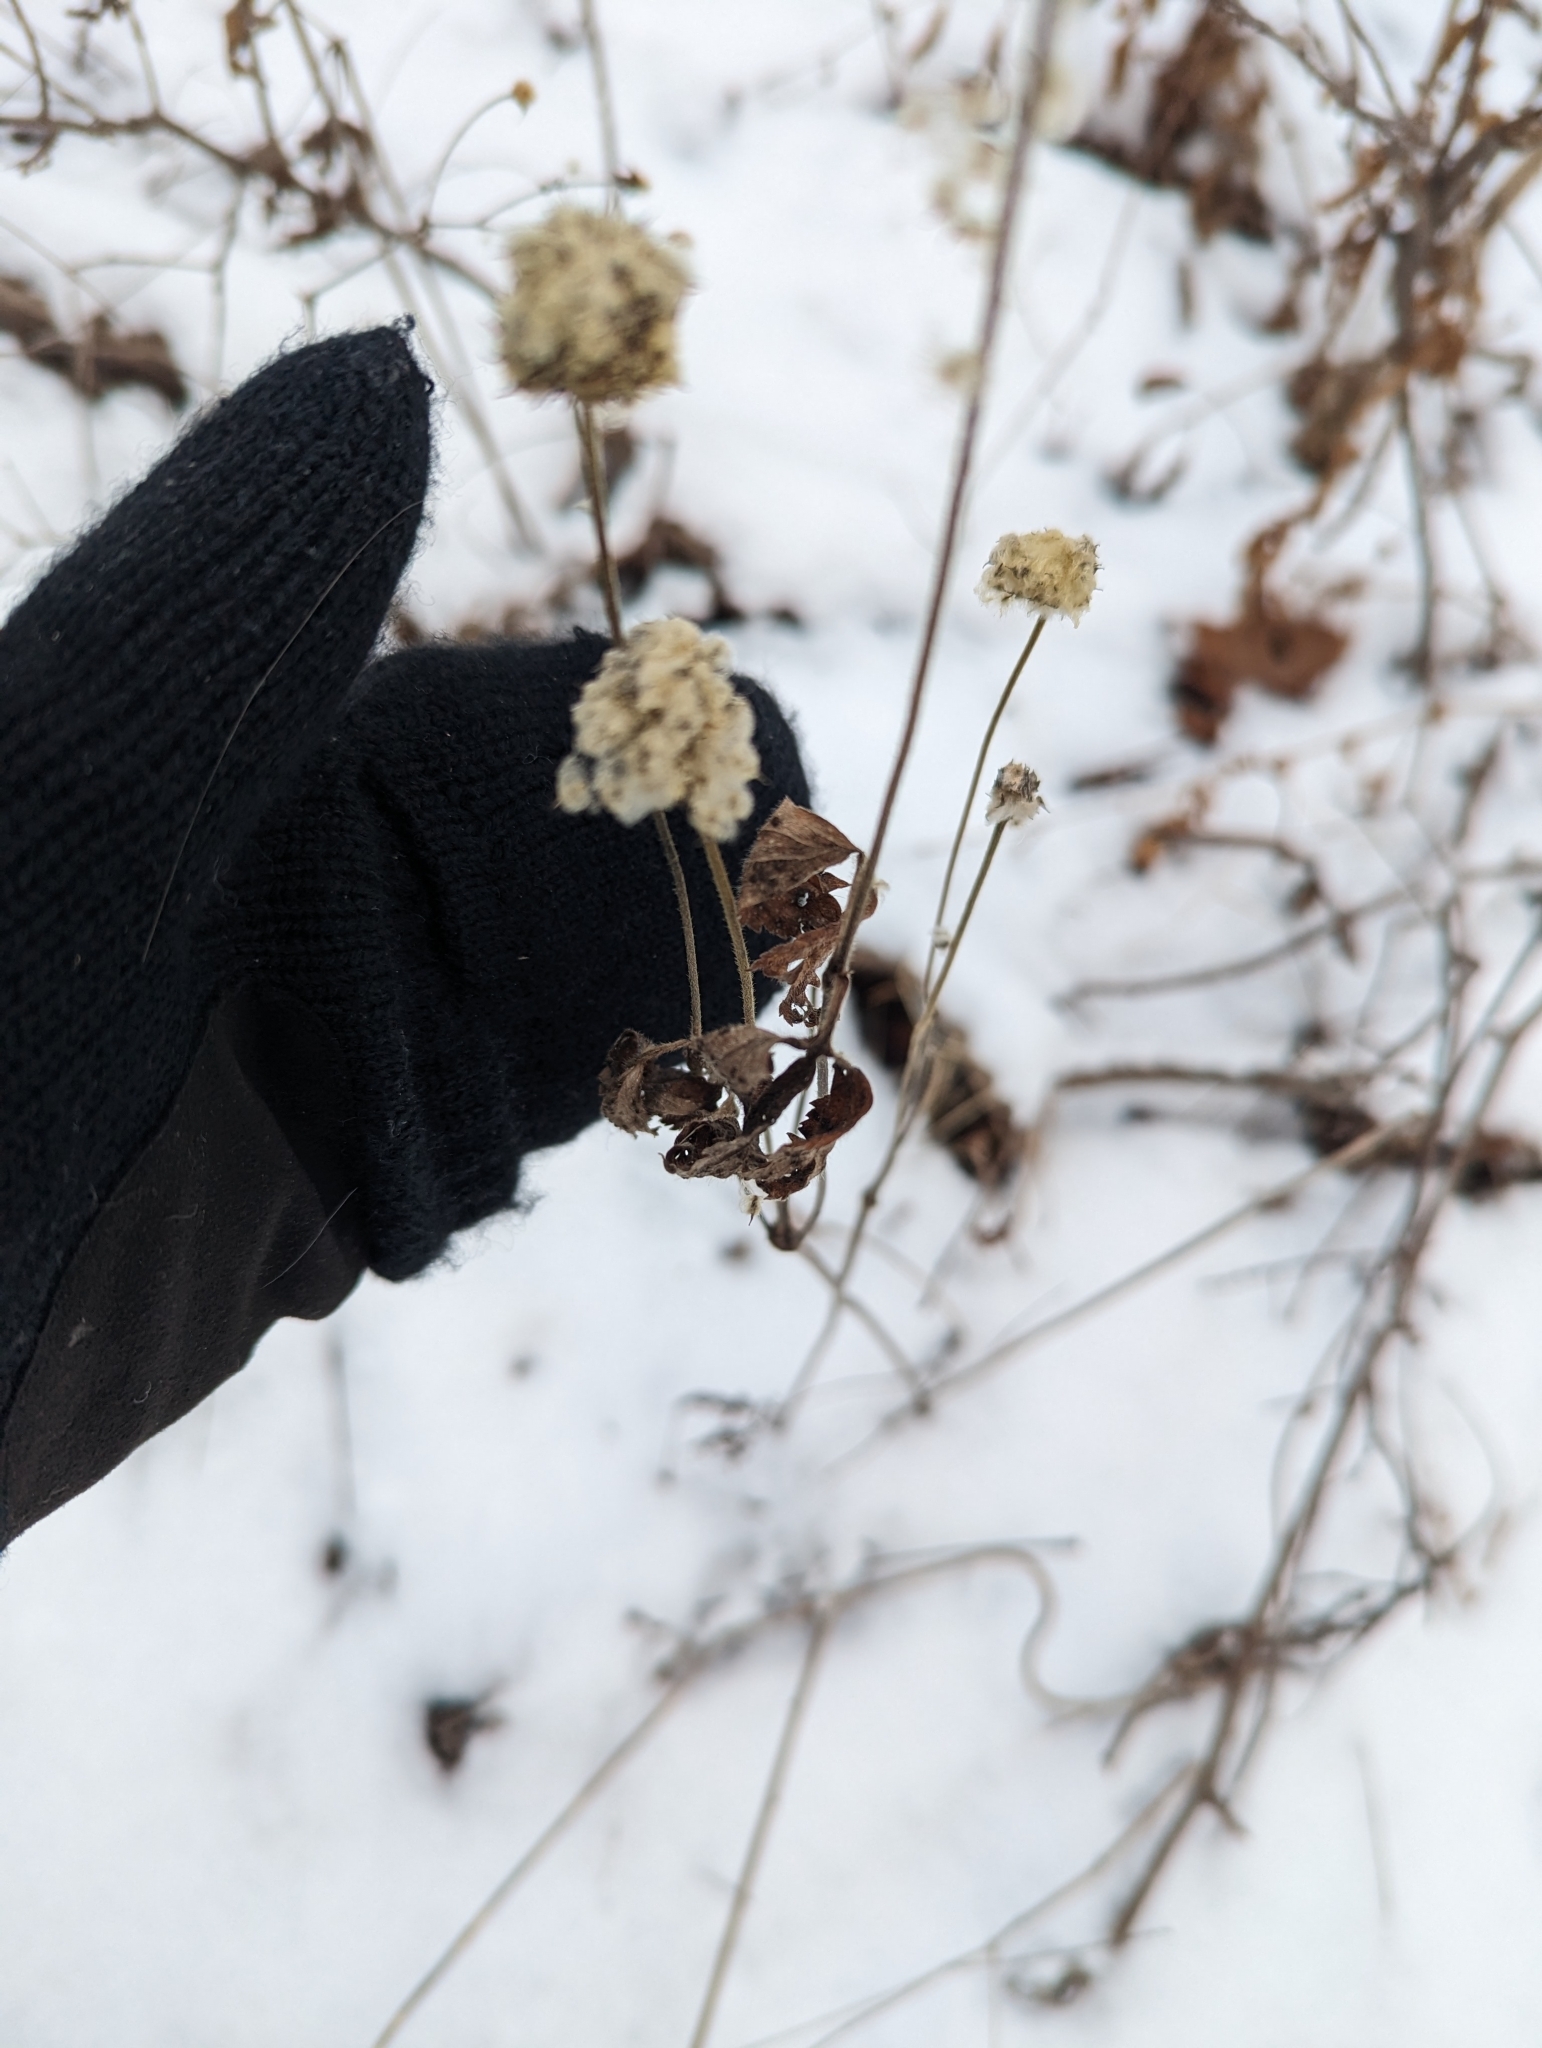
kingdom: Plantae
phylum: Tracheophyta
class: Magnoliopsida
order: Ranunculales
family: Ranunculaceae
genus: Anemone
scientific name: Anemone virginiana
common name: Tall anemone
